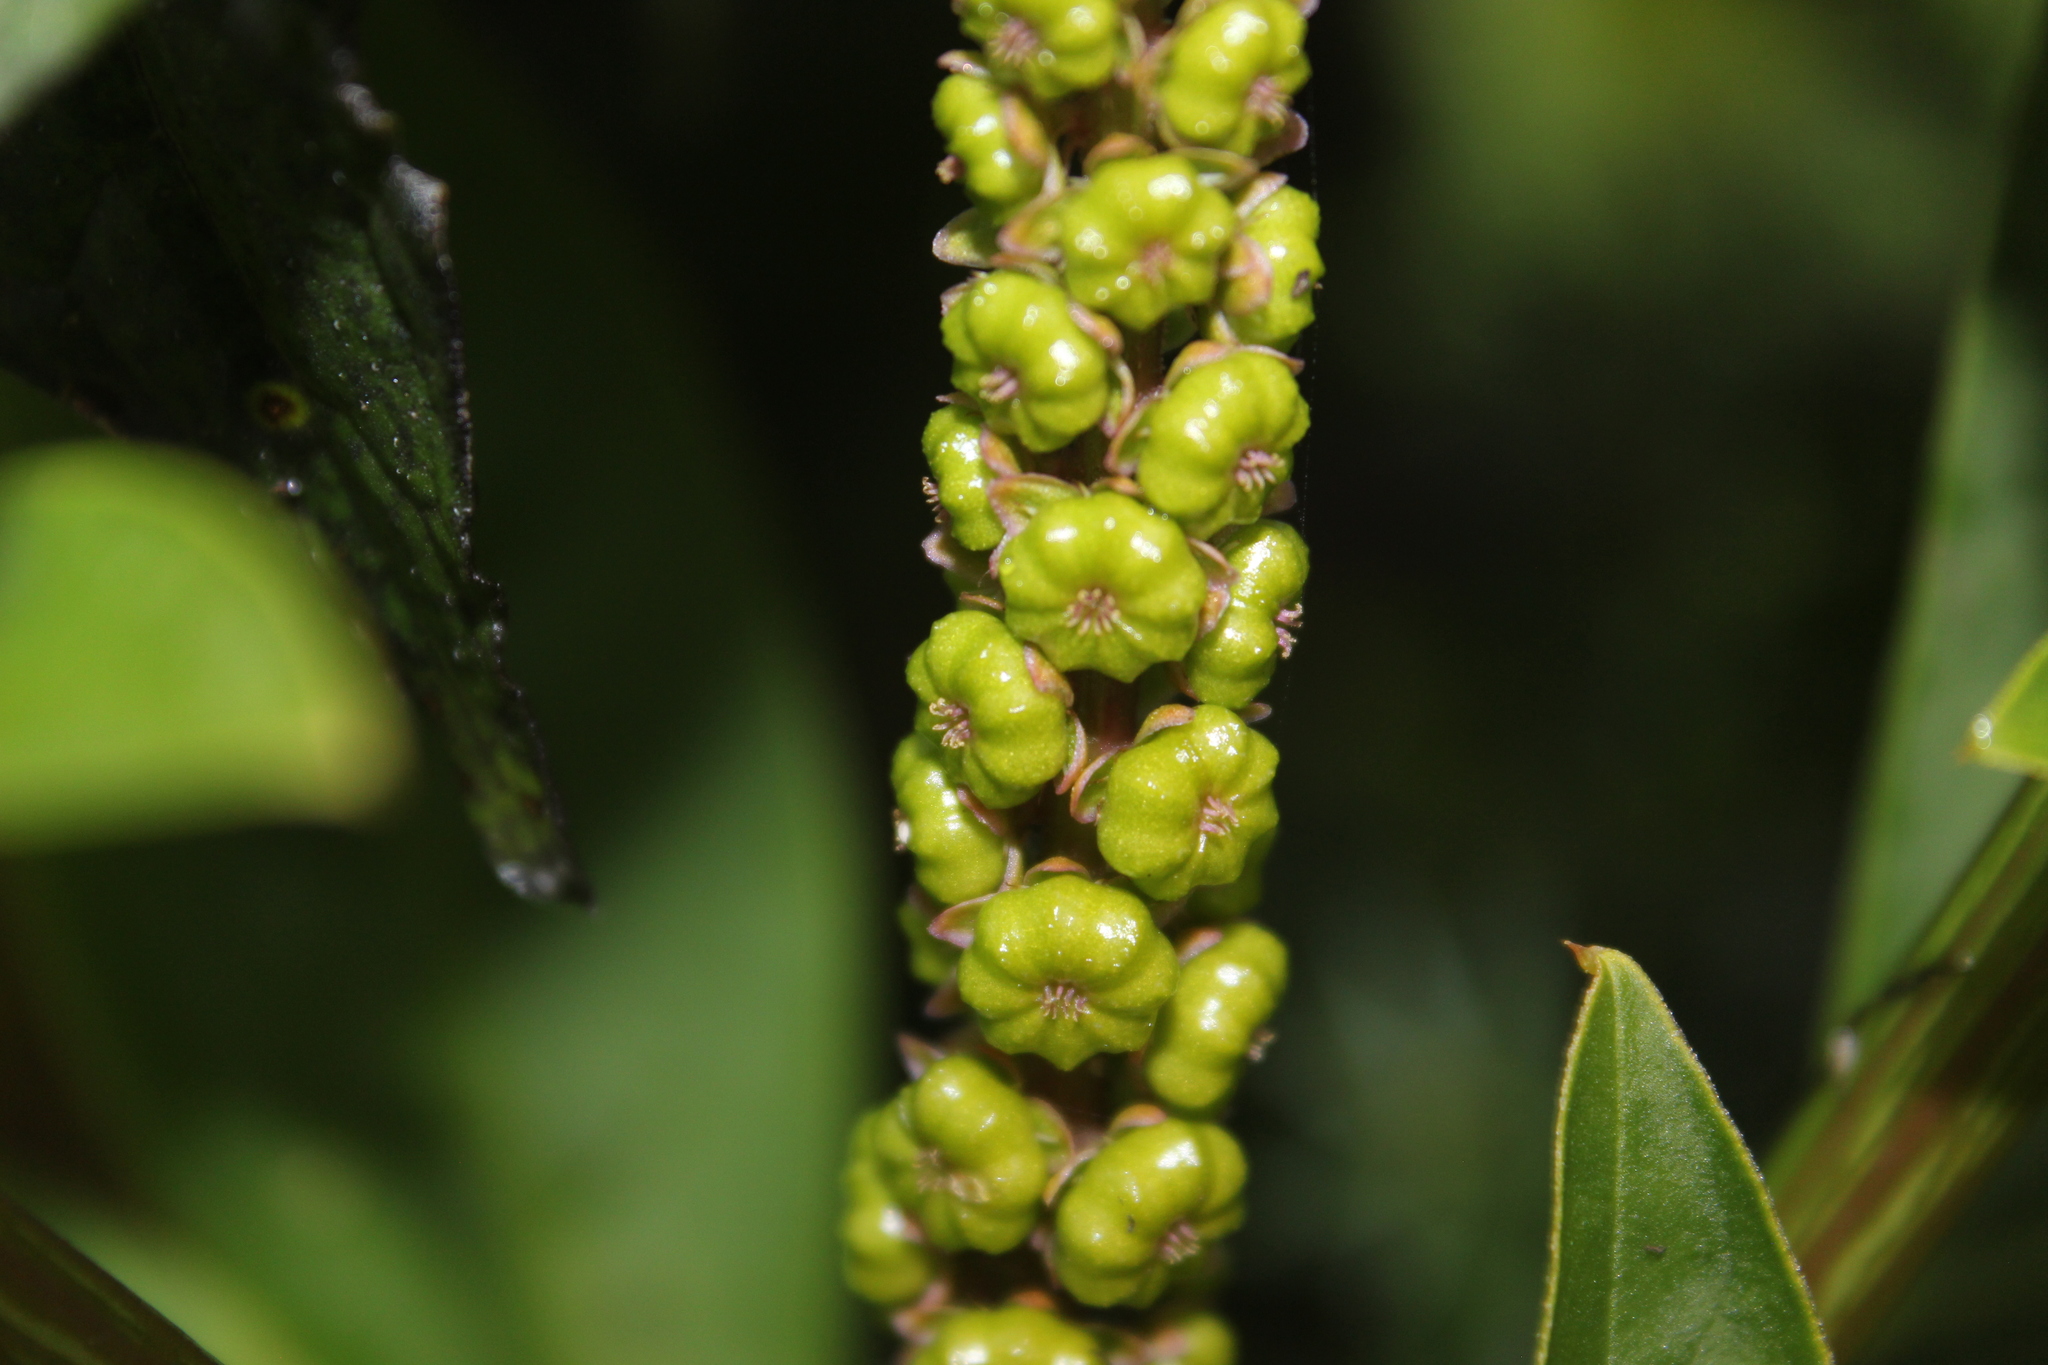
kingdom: Plantae
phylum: Tracheophyta
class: Magnoliopsida
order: Caryophyllales
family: Phytolaccaceae
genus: Phytolacca
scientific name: Phytolacca icosandra
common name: Button pokeweed
